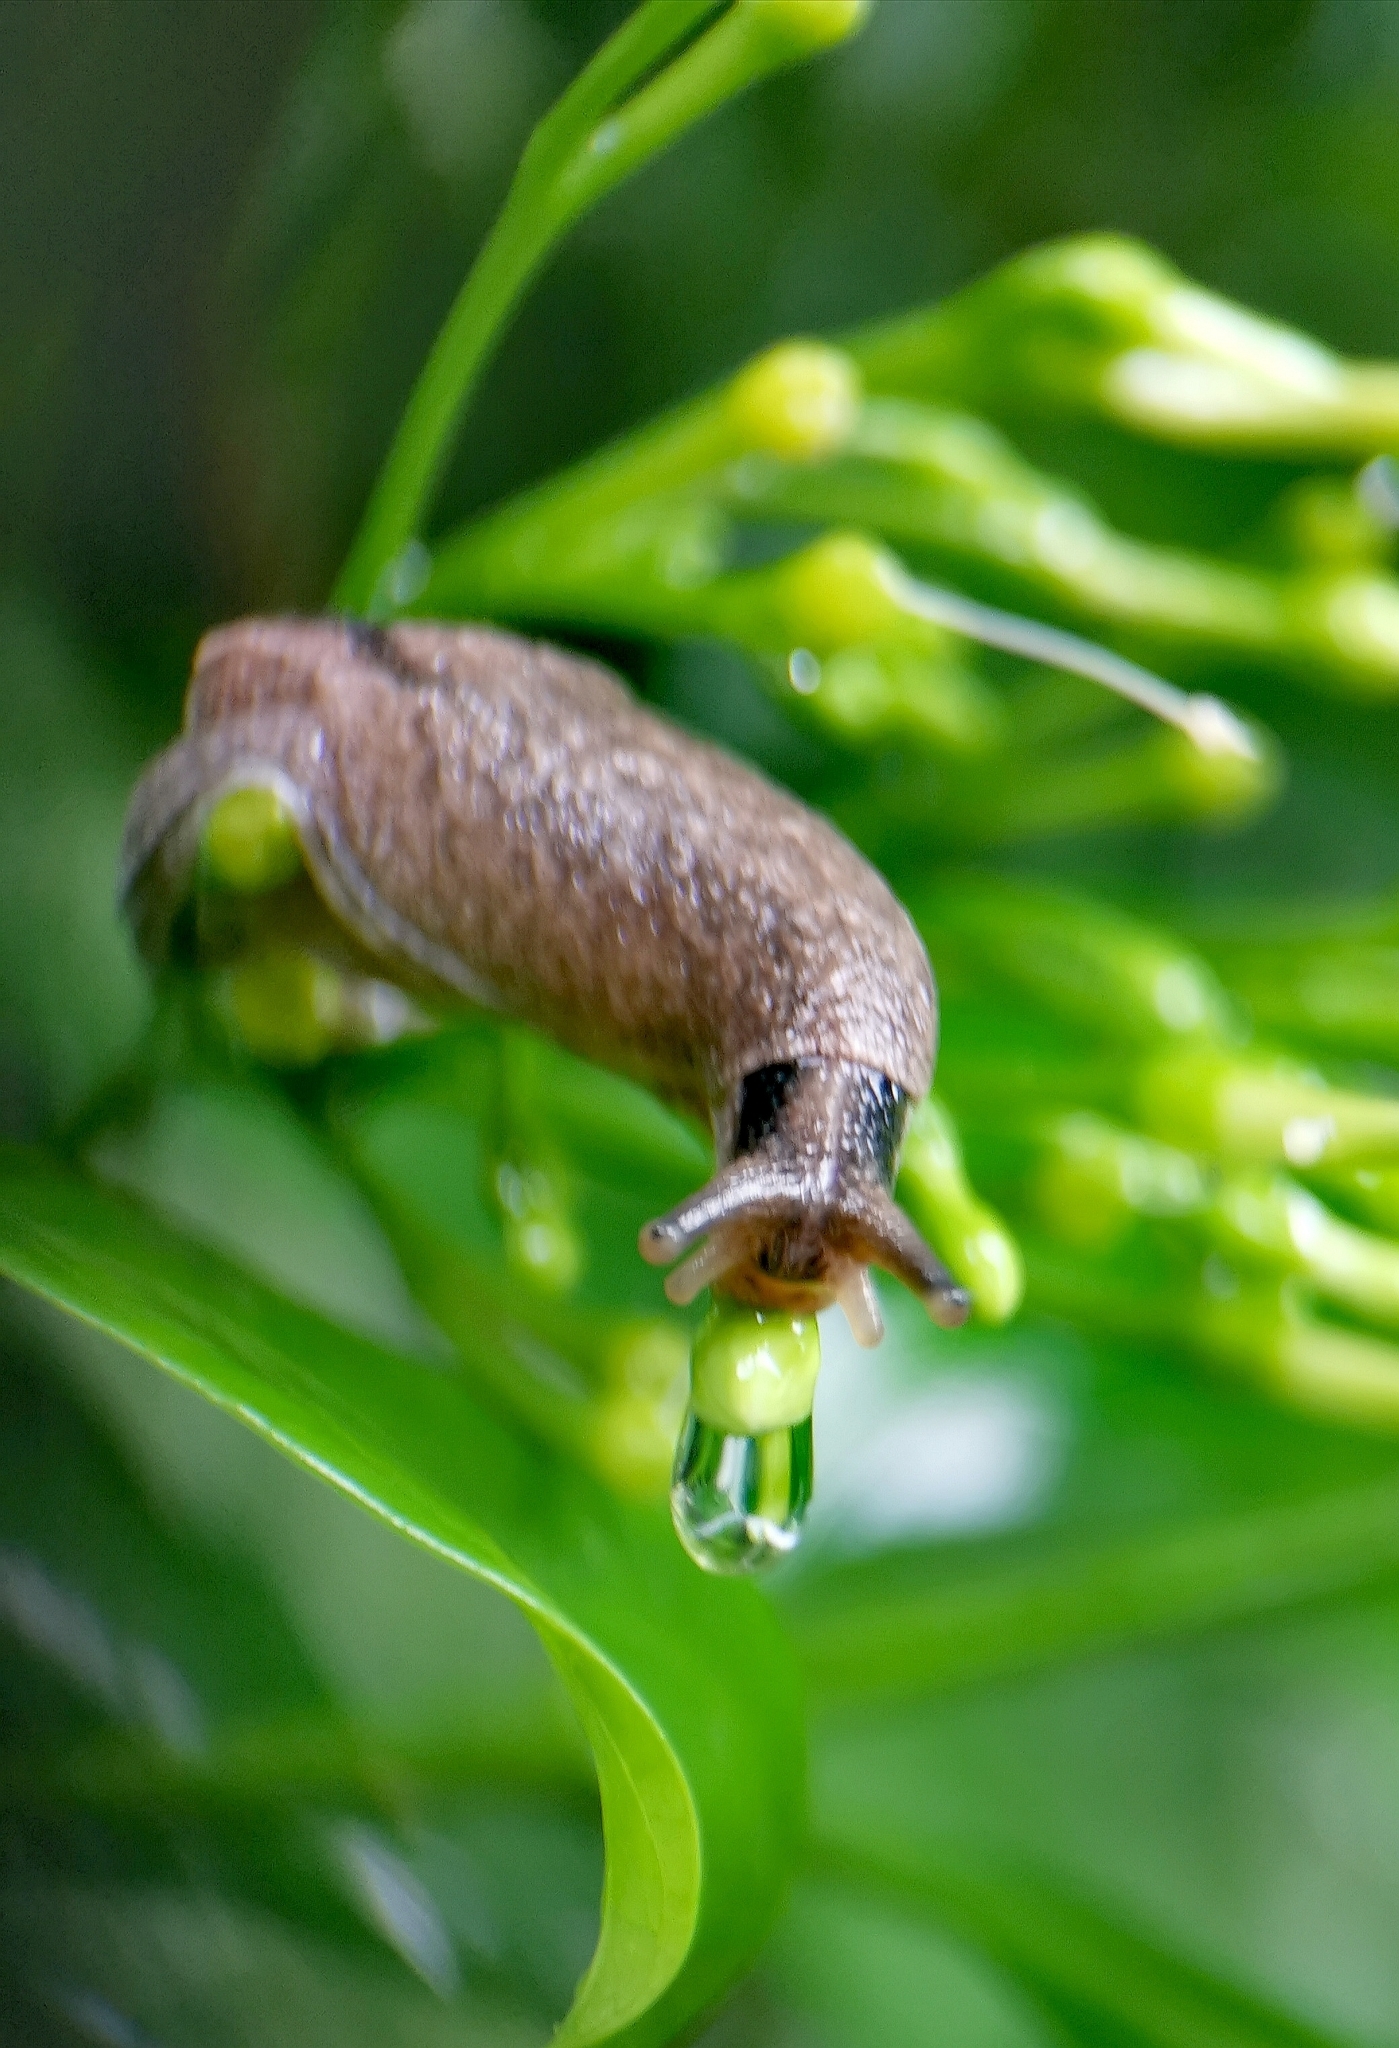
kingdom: Animalia
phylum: Mollusca
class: Gastropoda
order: Stylommatophora
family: Ariophantidae
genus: Parmarion
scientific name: Parmarion martensi
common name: Semi-slug
